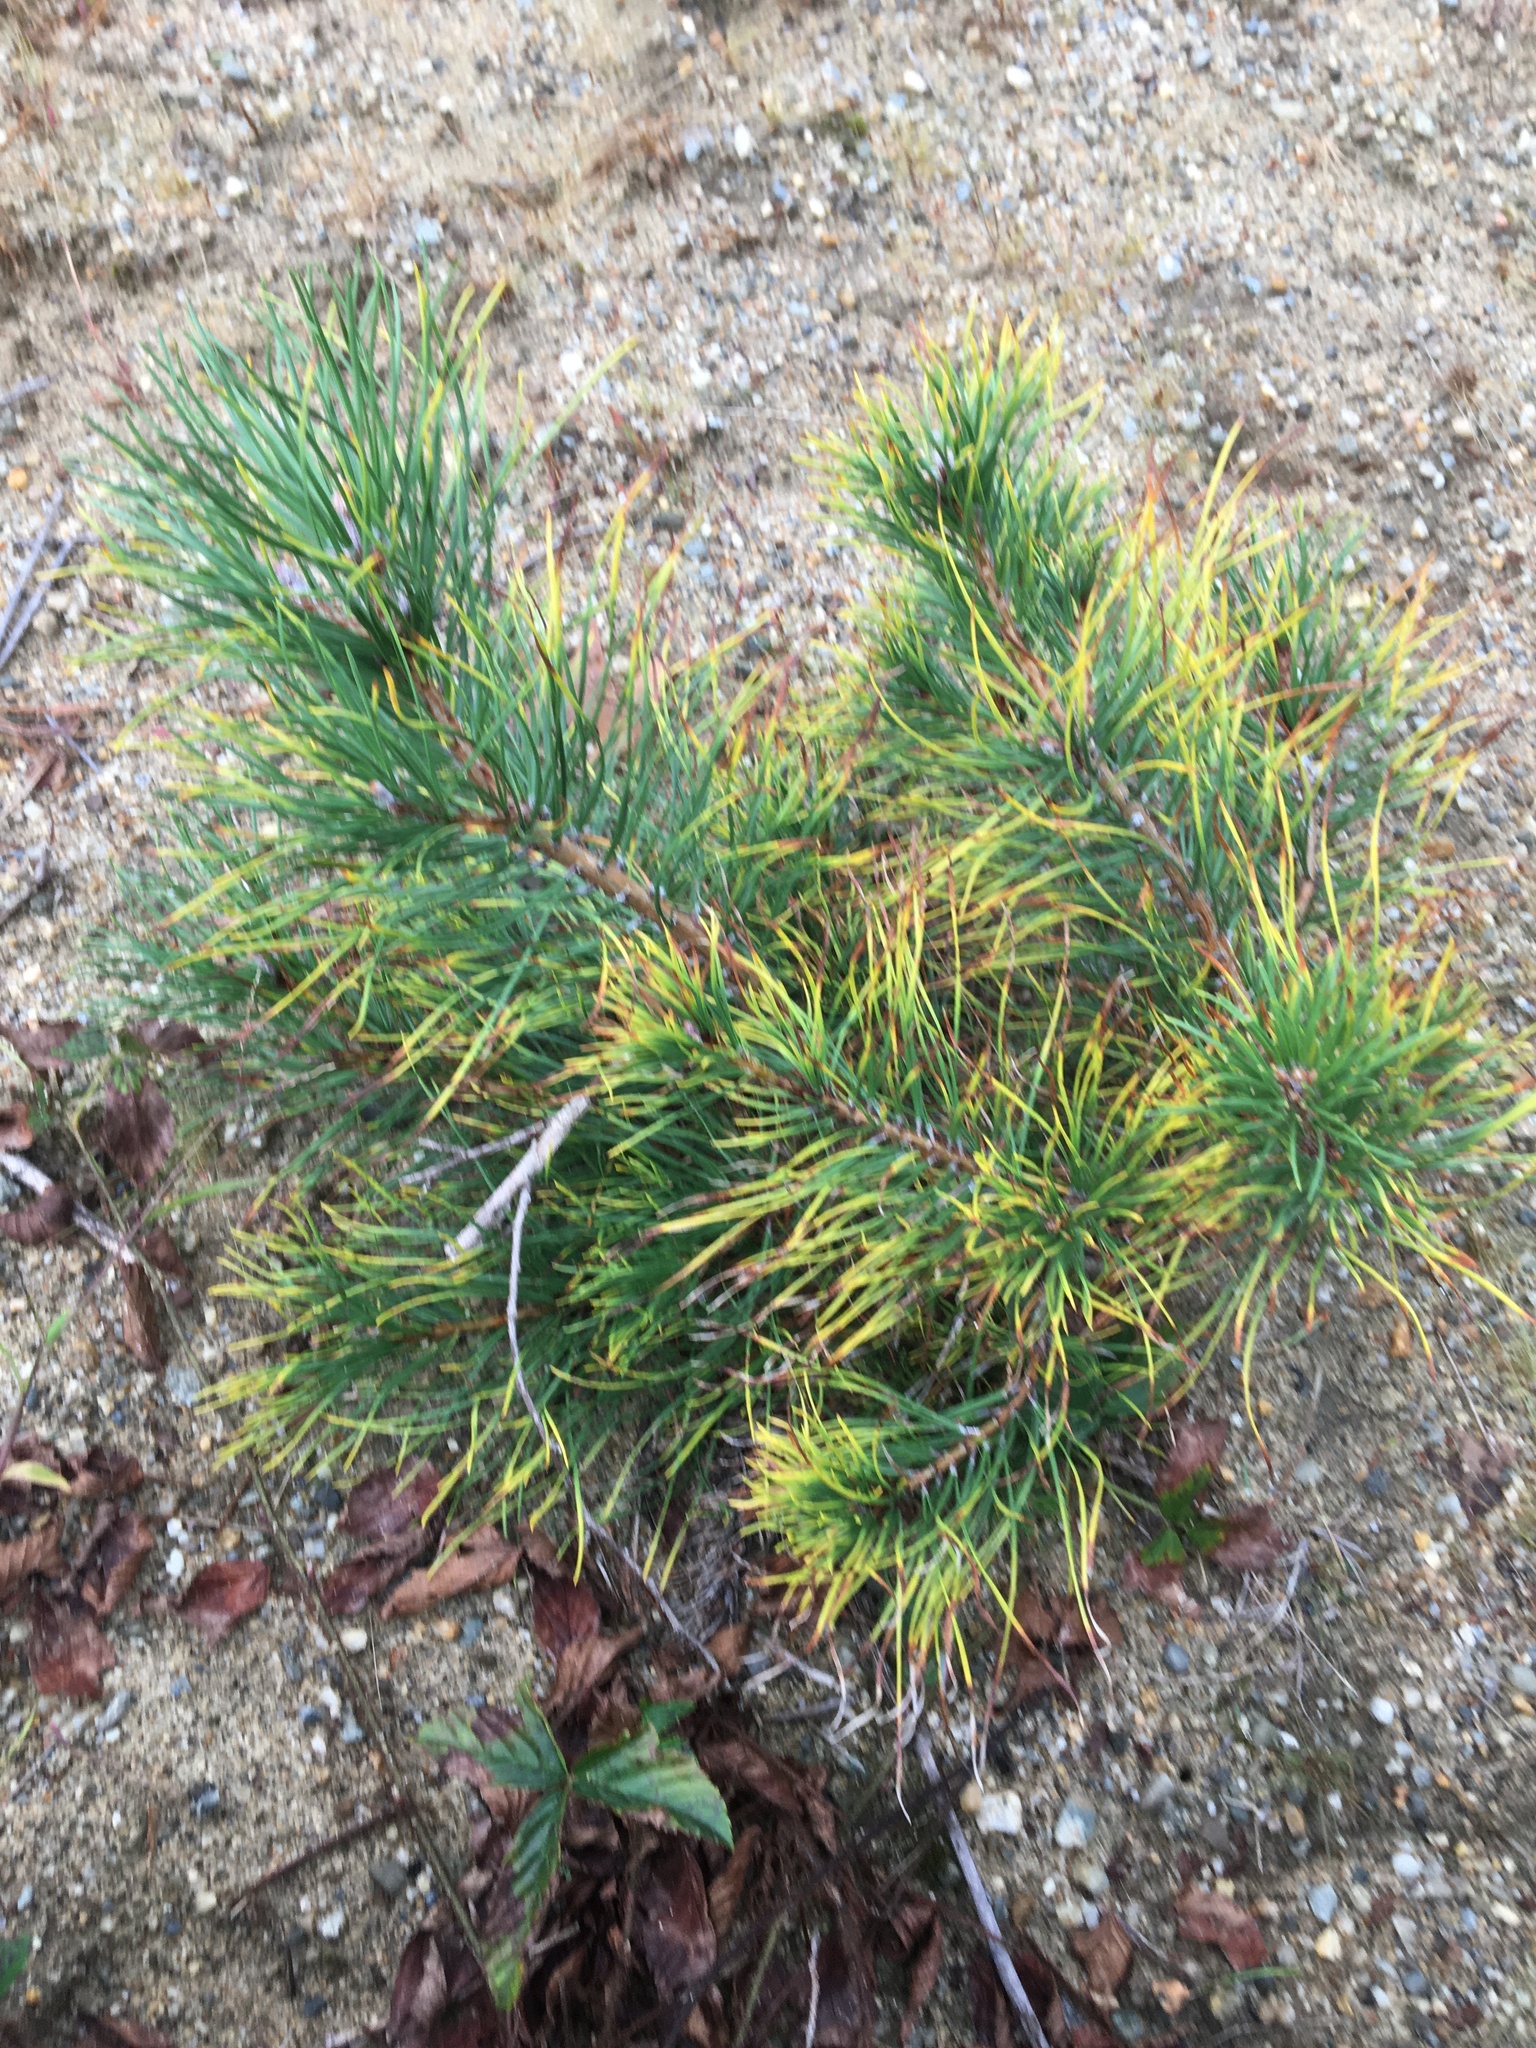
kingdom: Plantae
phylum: Tracheophyta
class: Pinopsida
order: Pinales
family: Pinaceae
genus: Pinus
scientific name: Pinus rigida
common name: Pitch pine
